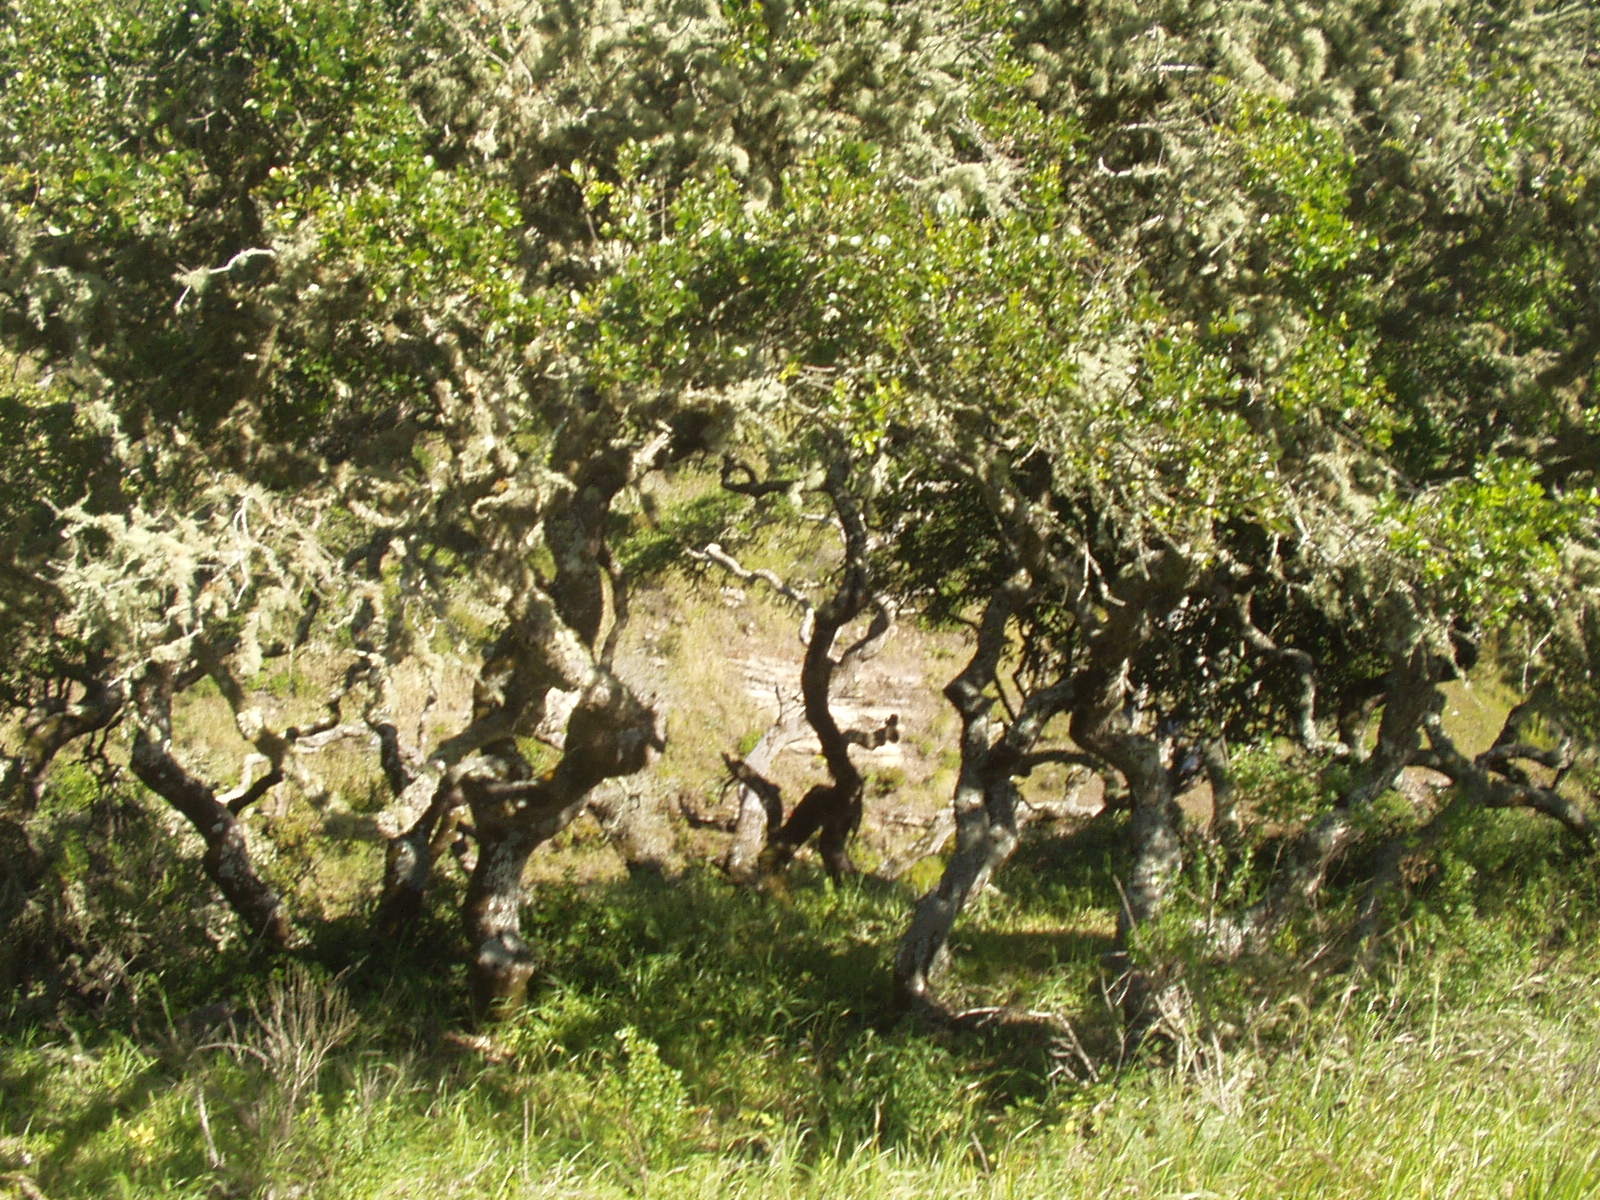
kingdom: Plantae
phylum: Tracheophyta
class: Magnoliopsida
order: Fagales
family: Fagaceae
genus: Quercus
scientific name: Quercus pacifica
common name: Channel island scrub oak
